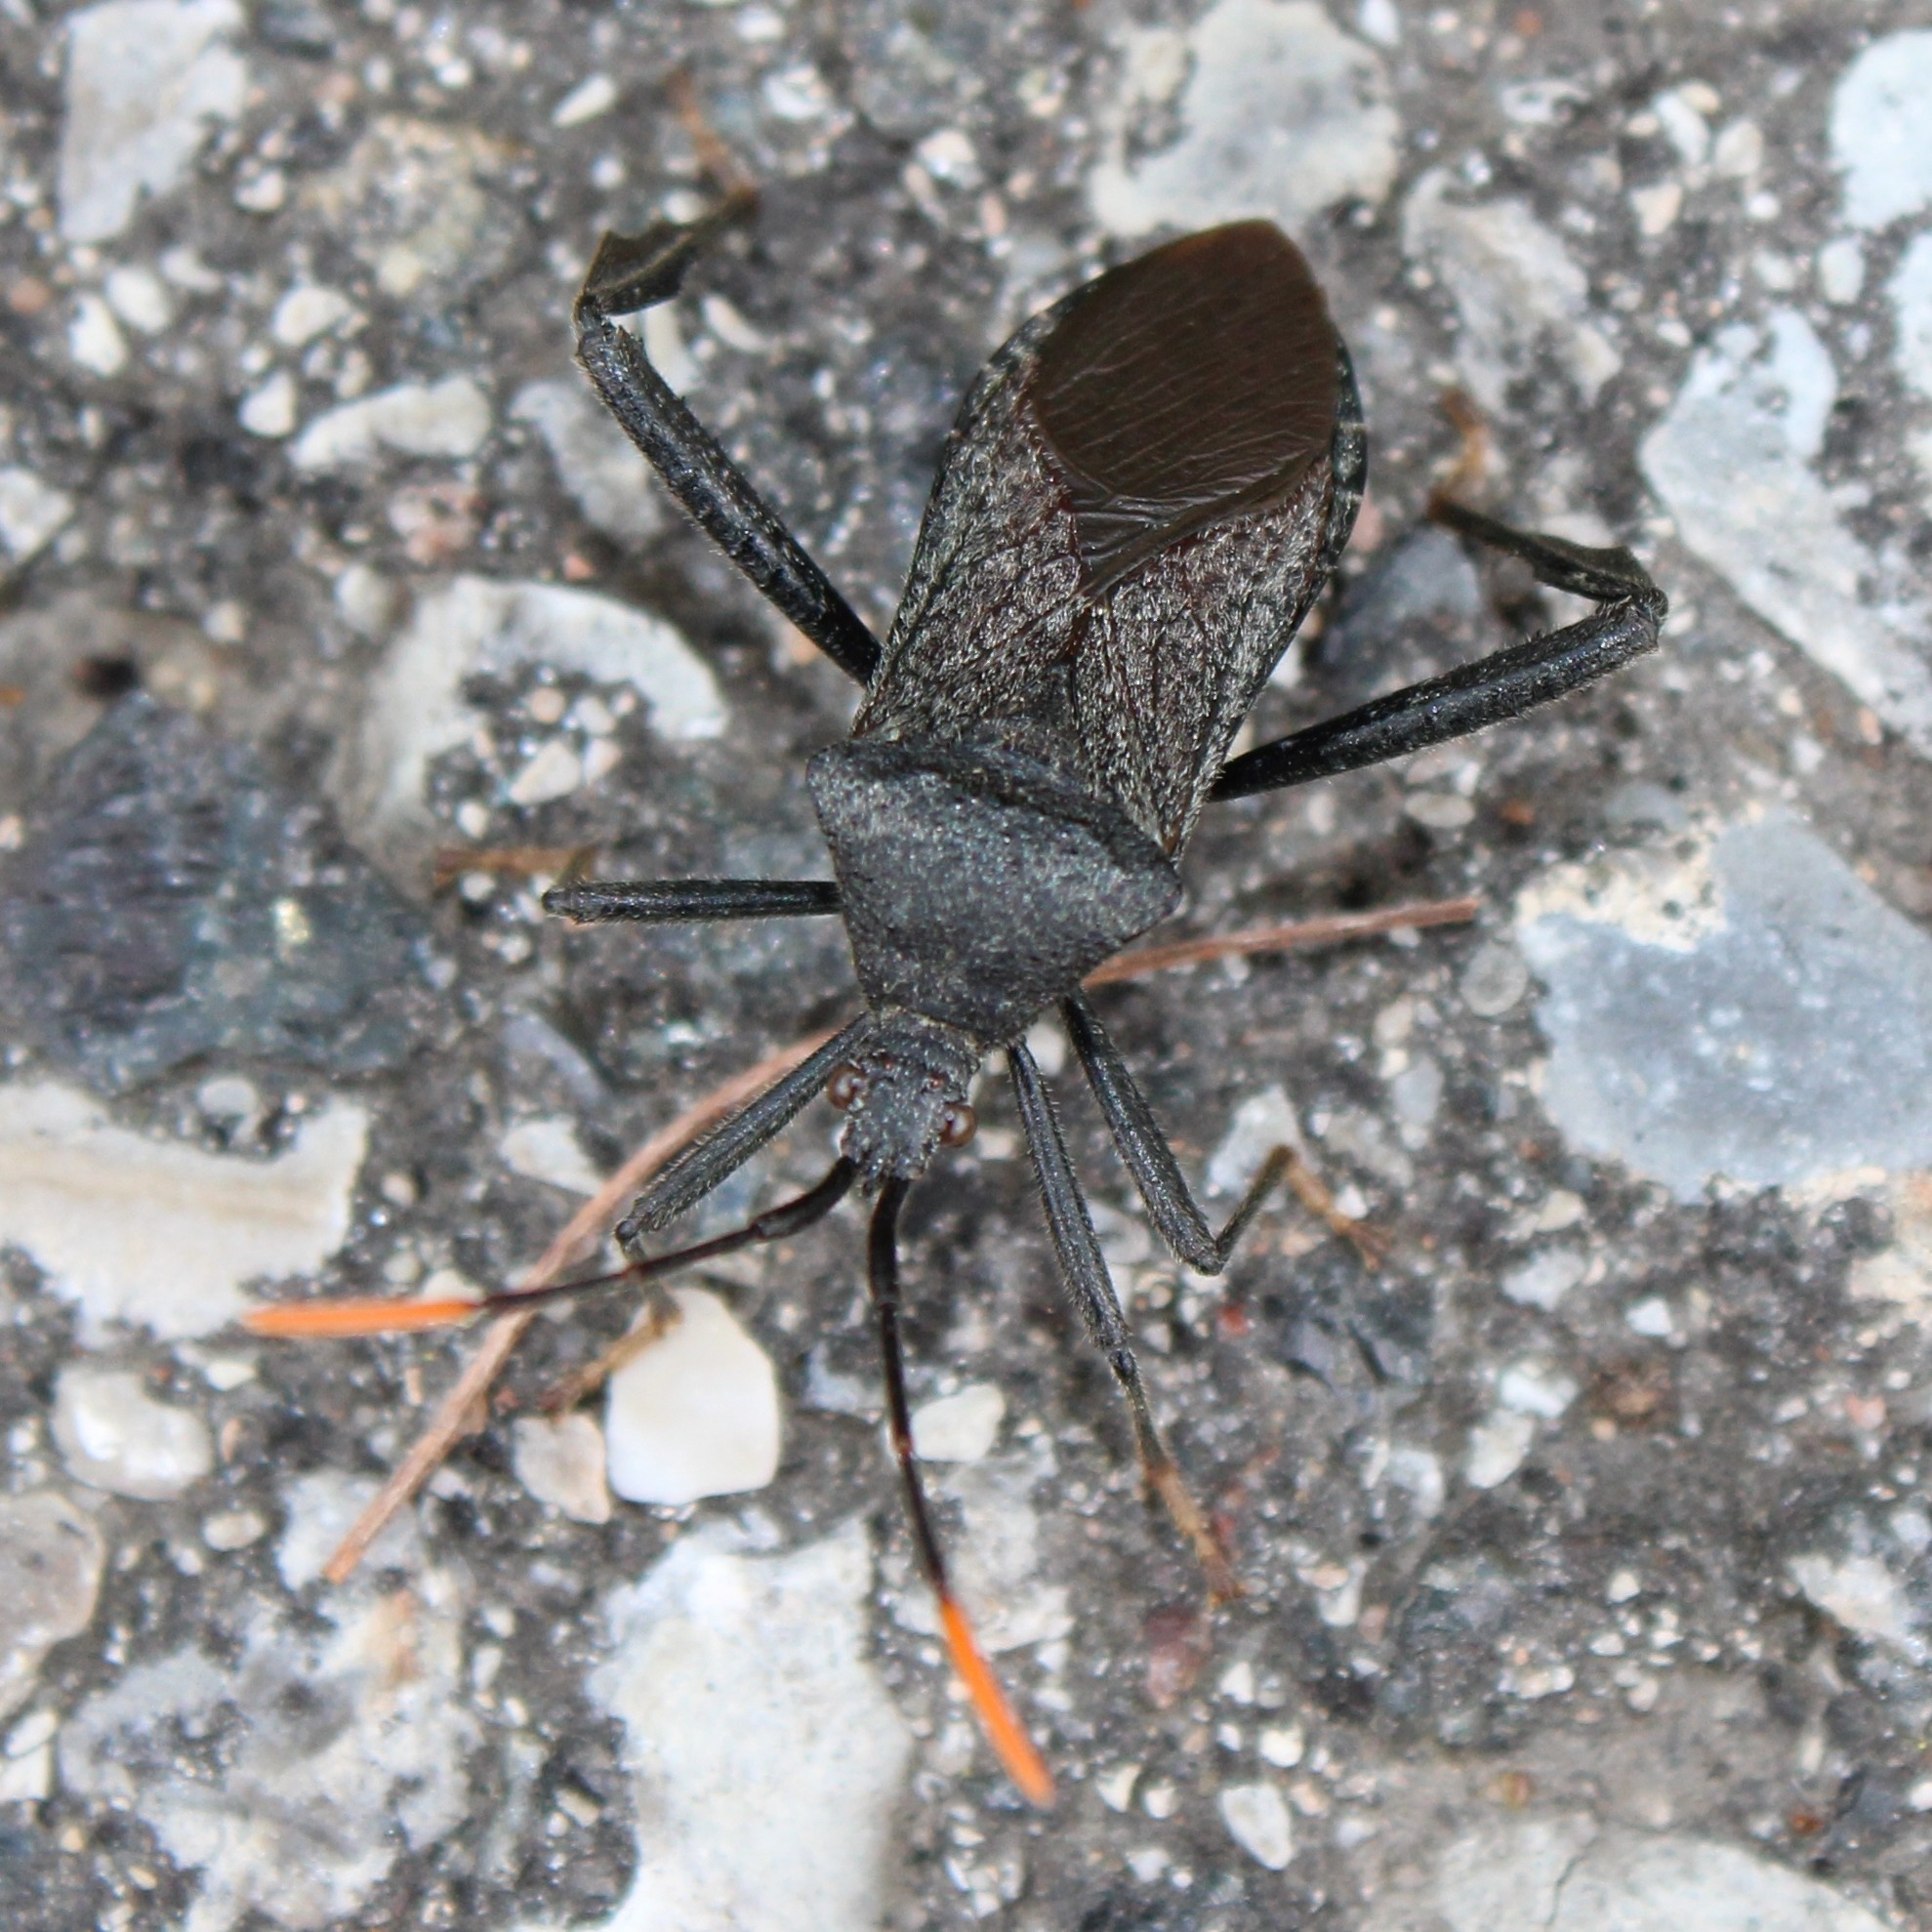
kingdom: Animalia
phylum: Arthropoda
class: Insecta
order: Hemiptera
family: Coreidae
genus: Acanthocephala
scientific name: Acanthocephala terminalis
